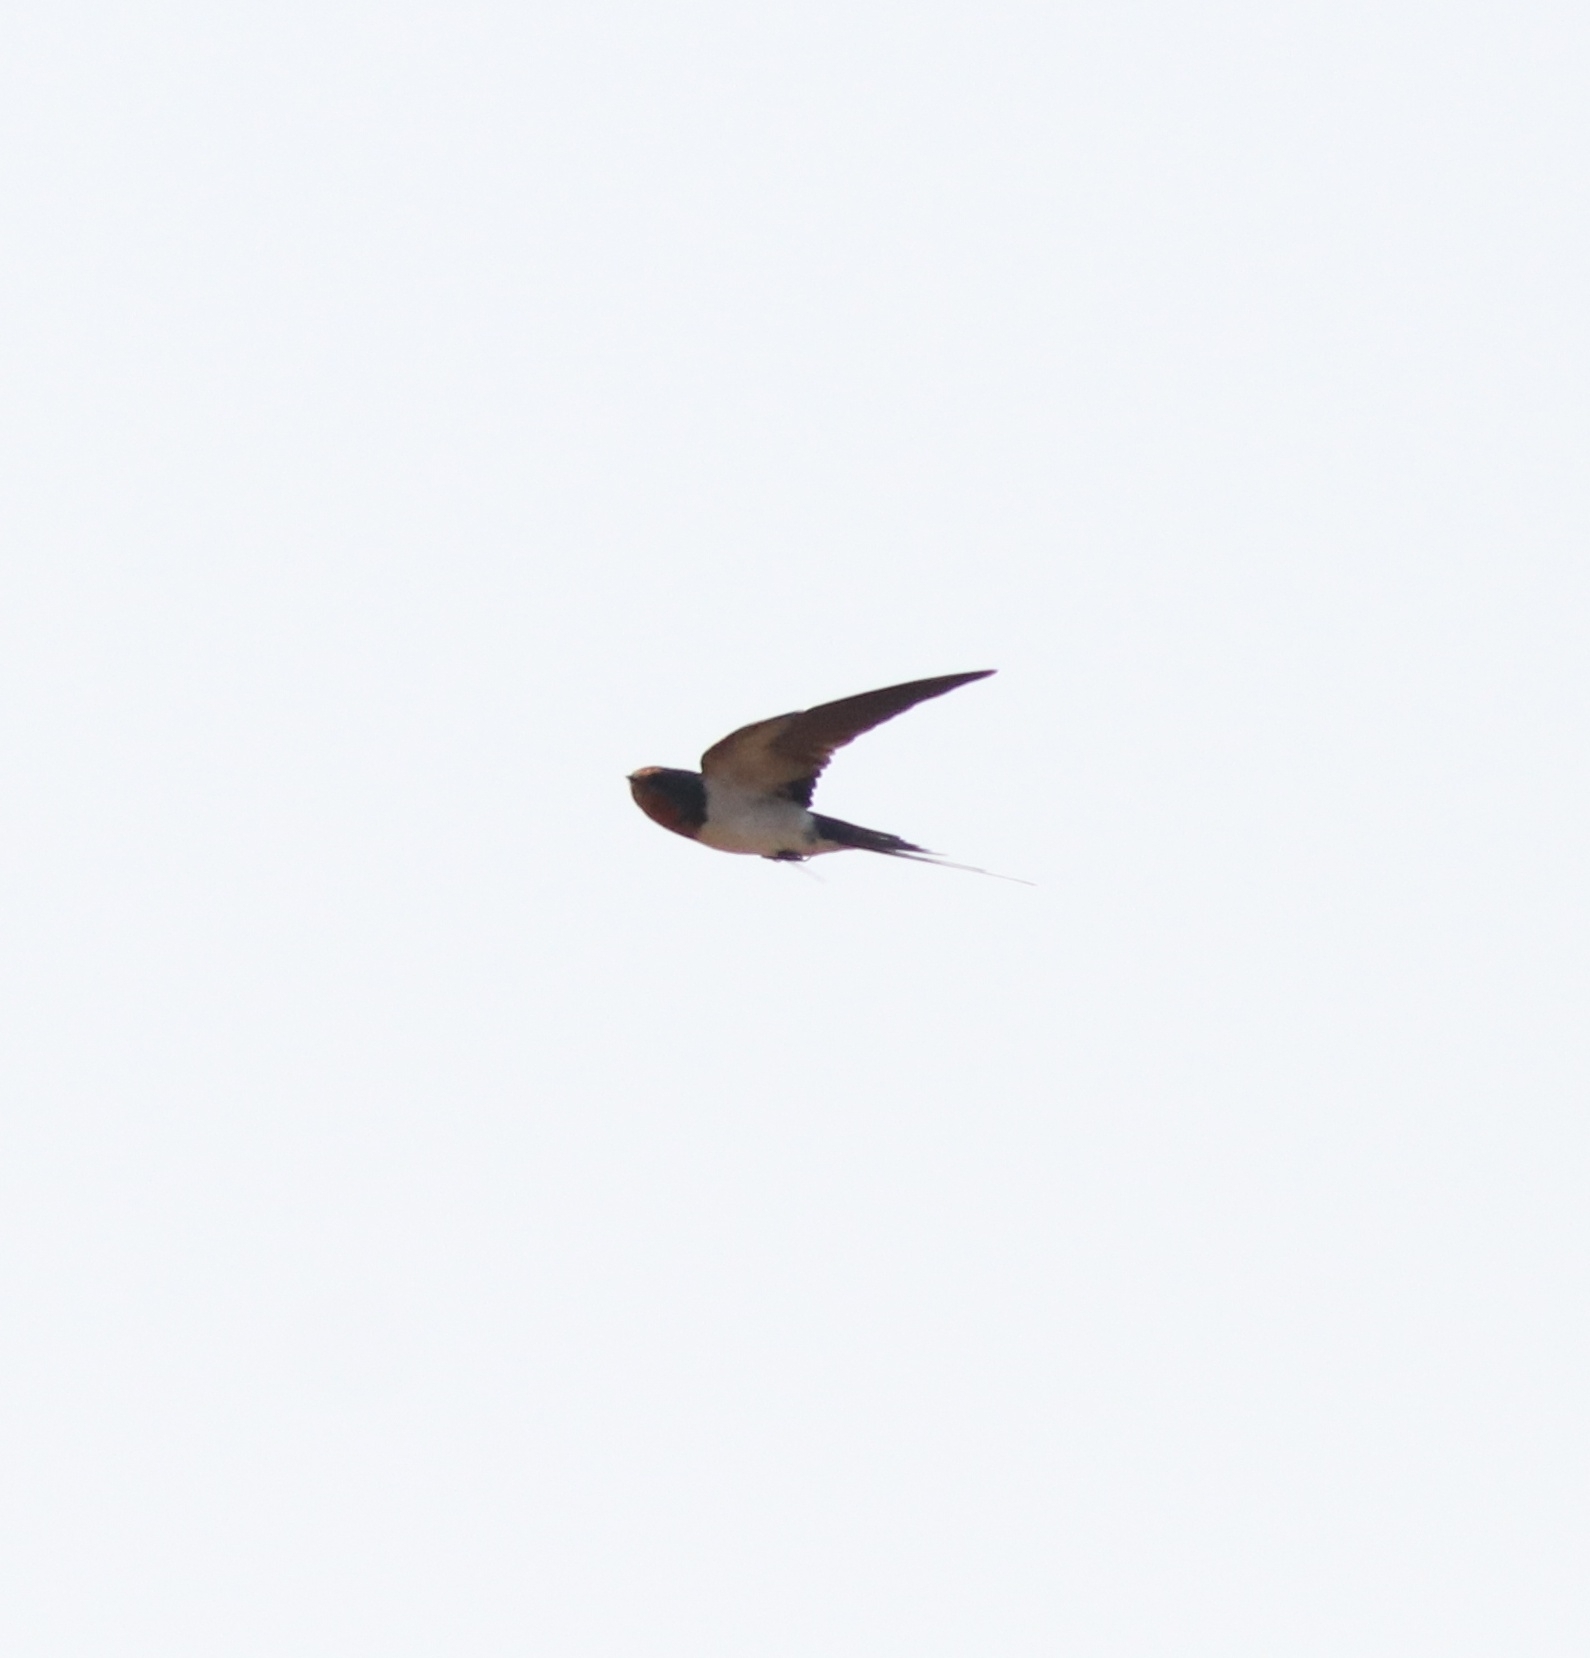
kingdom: Animalia
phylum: Chordata
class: Aves
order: Passeriformes
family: Hirundinidae
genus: Hirundo
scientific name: Hirundo rustica
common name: Barn swallow
